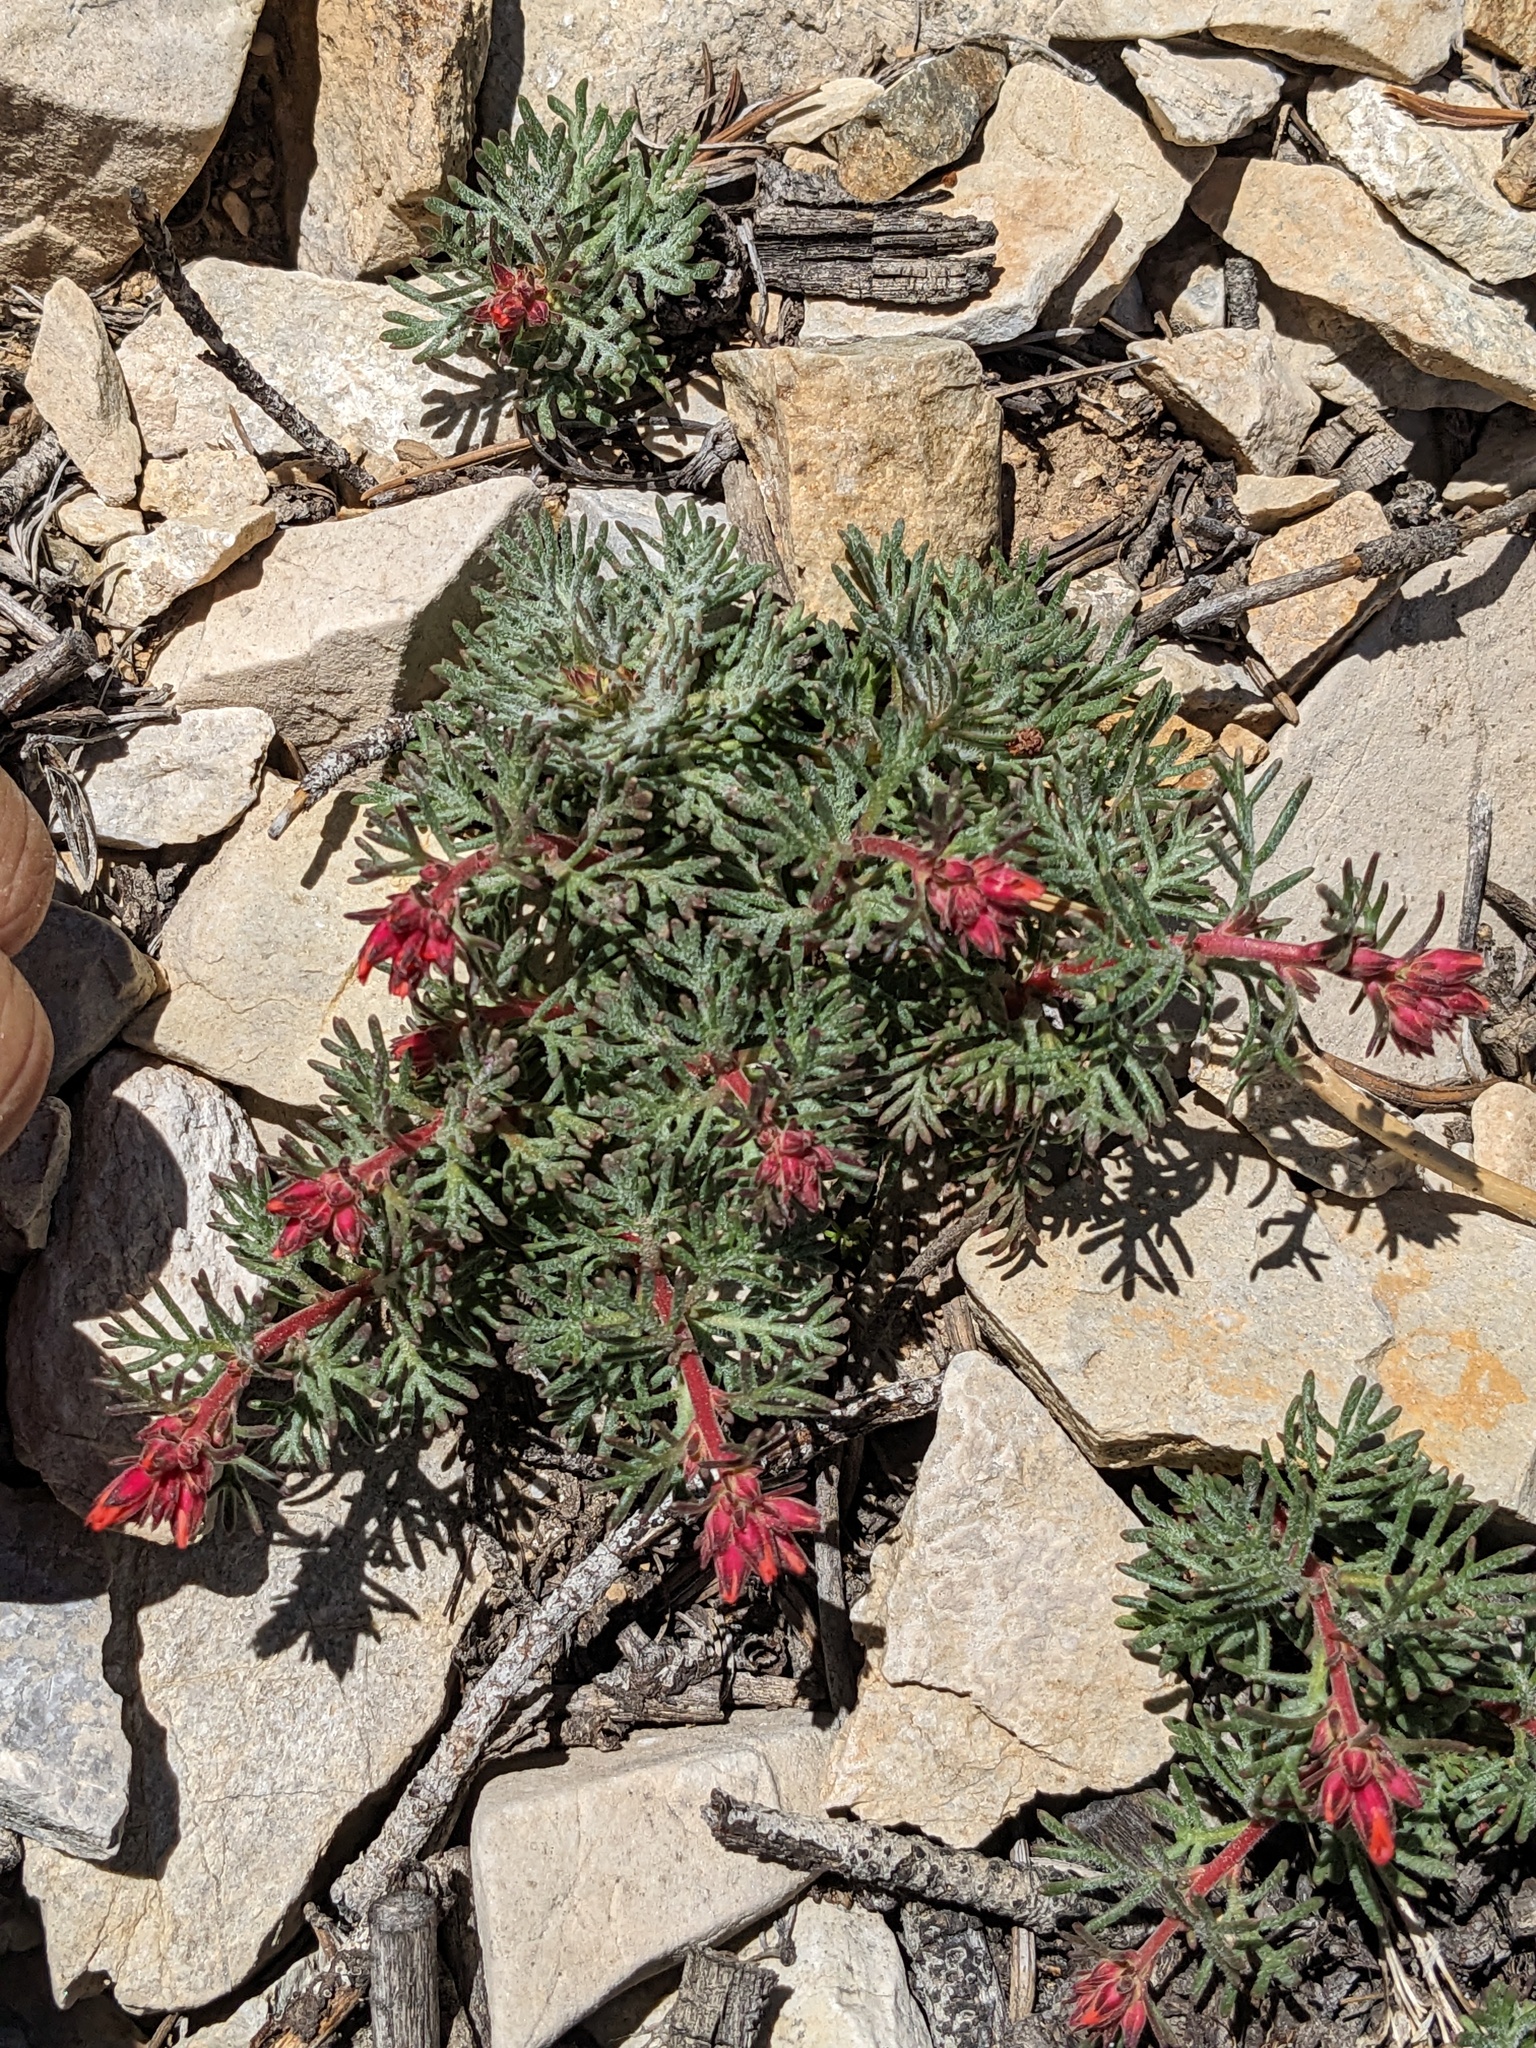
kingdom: Plantae
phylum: Tracheophyta
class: Magnoliopsida
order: Ericales
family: Polemoniaceae
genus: Ipomopsis
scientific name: Ipomopsis arizonica
